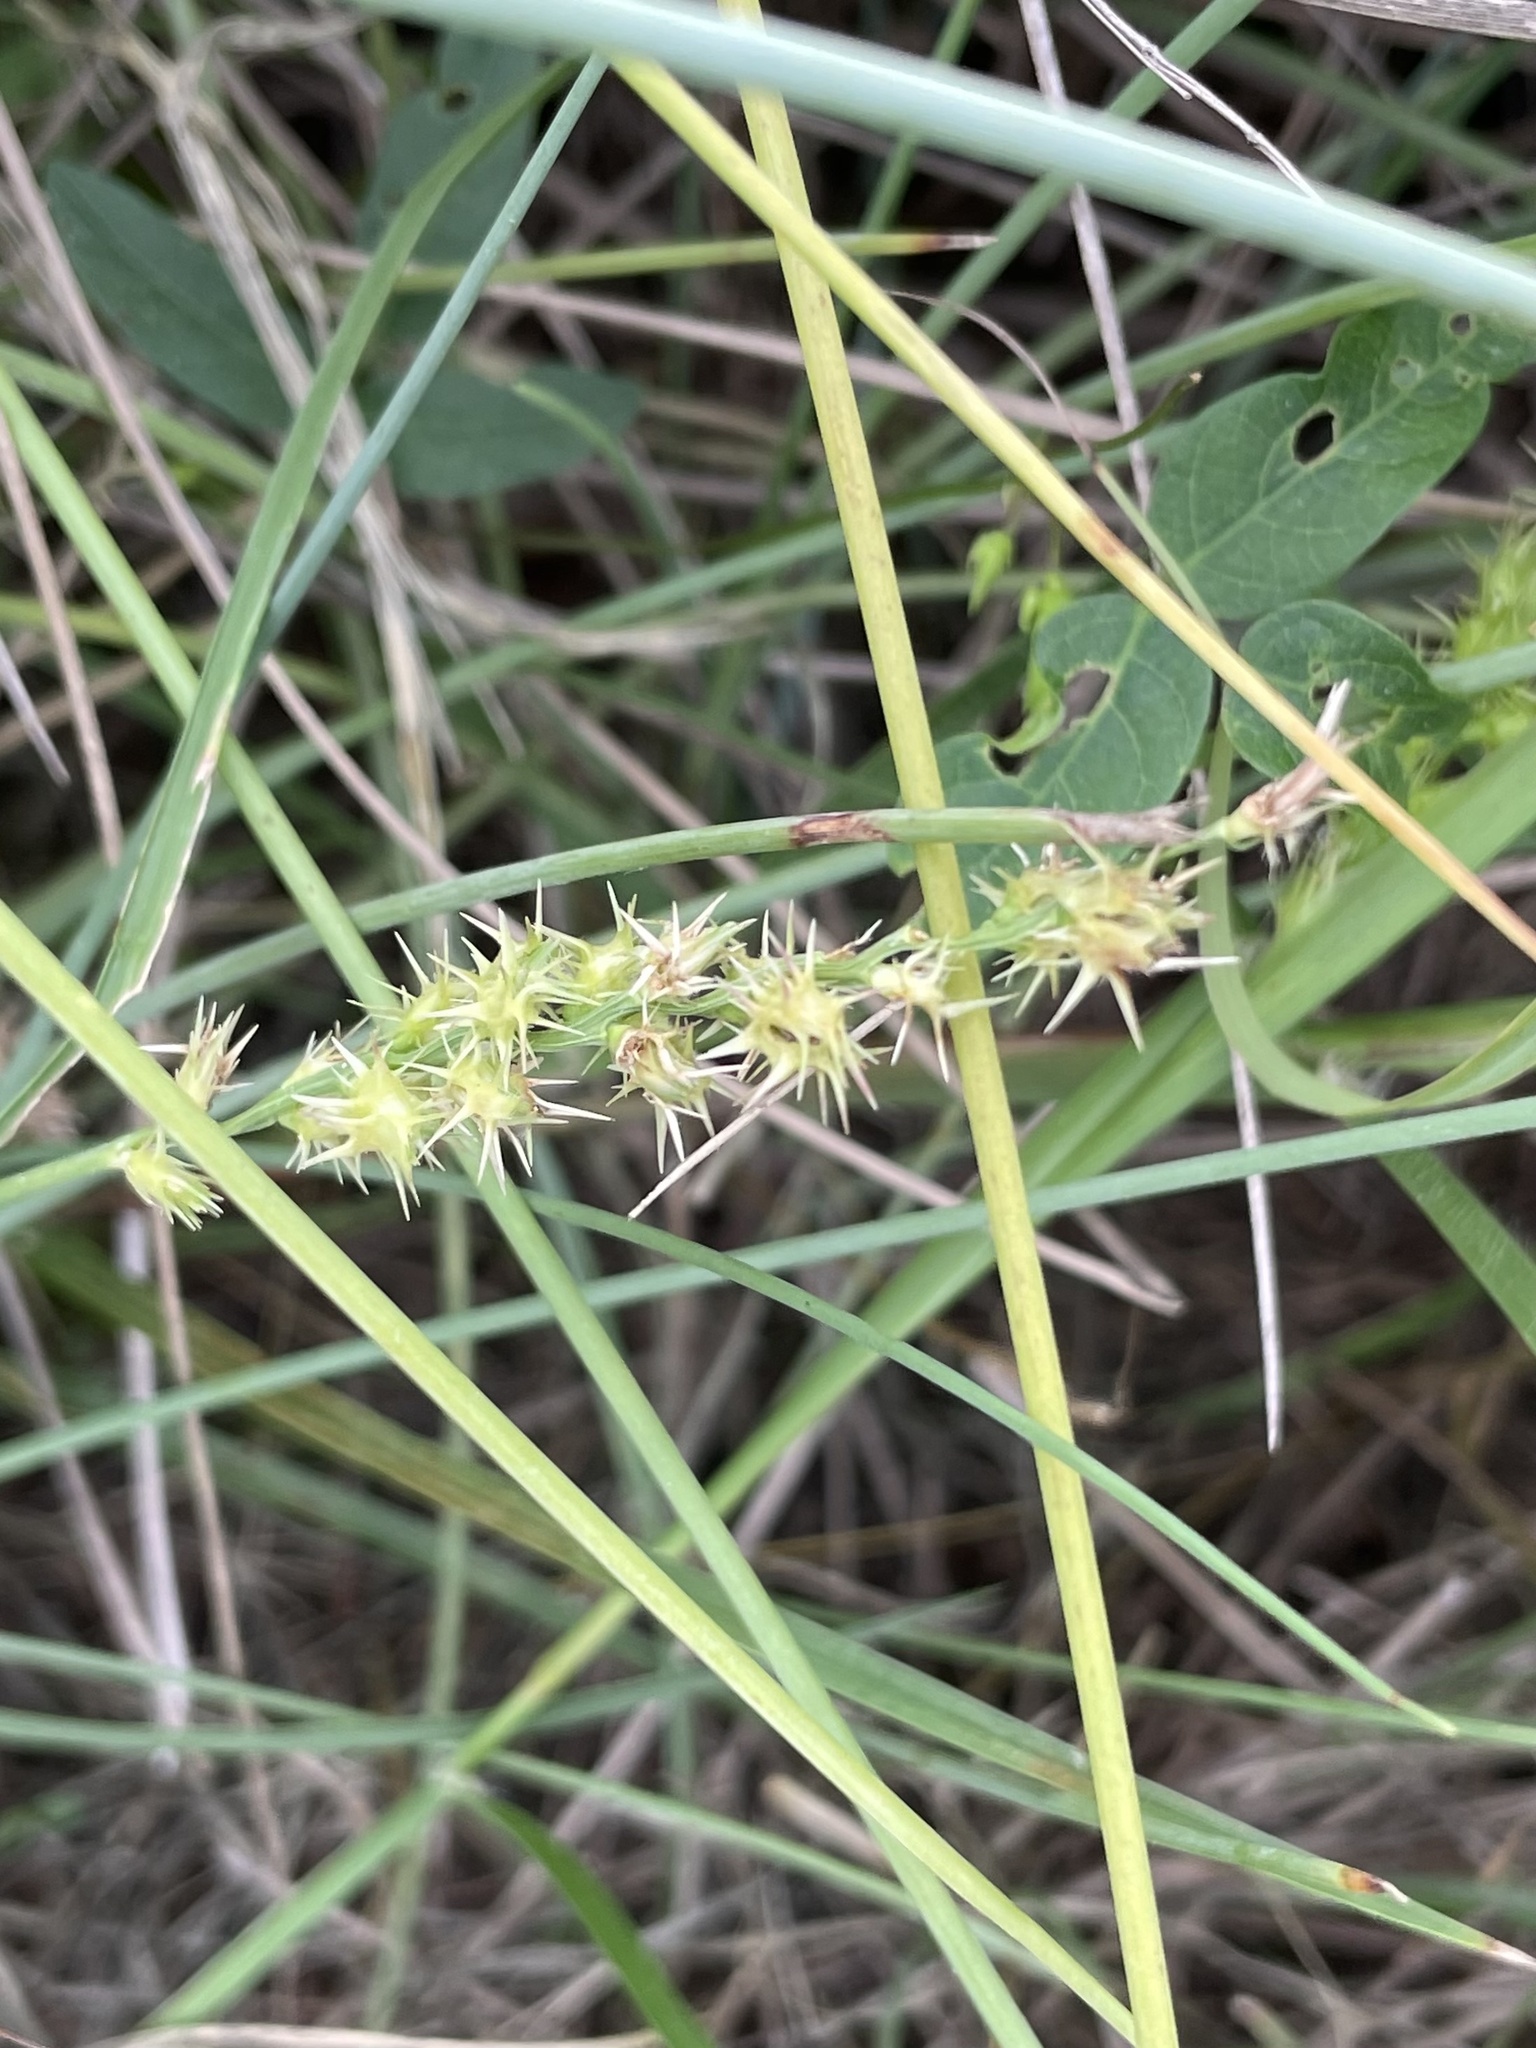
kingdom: Plantae
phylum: Tracheophyta
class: Liliopsida
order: Poales
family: Poaceae
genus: Cenchrus
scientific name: Cenchrus spinifex
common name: Coast sandbur
